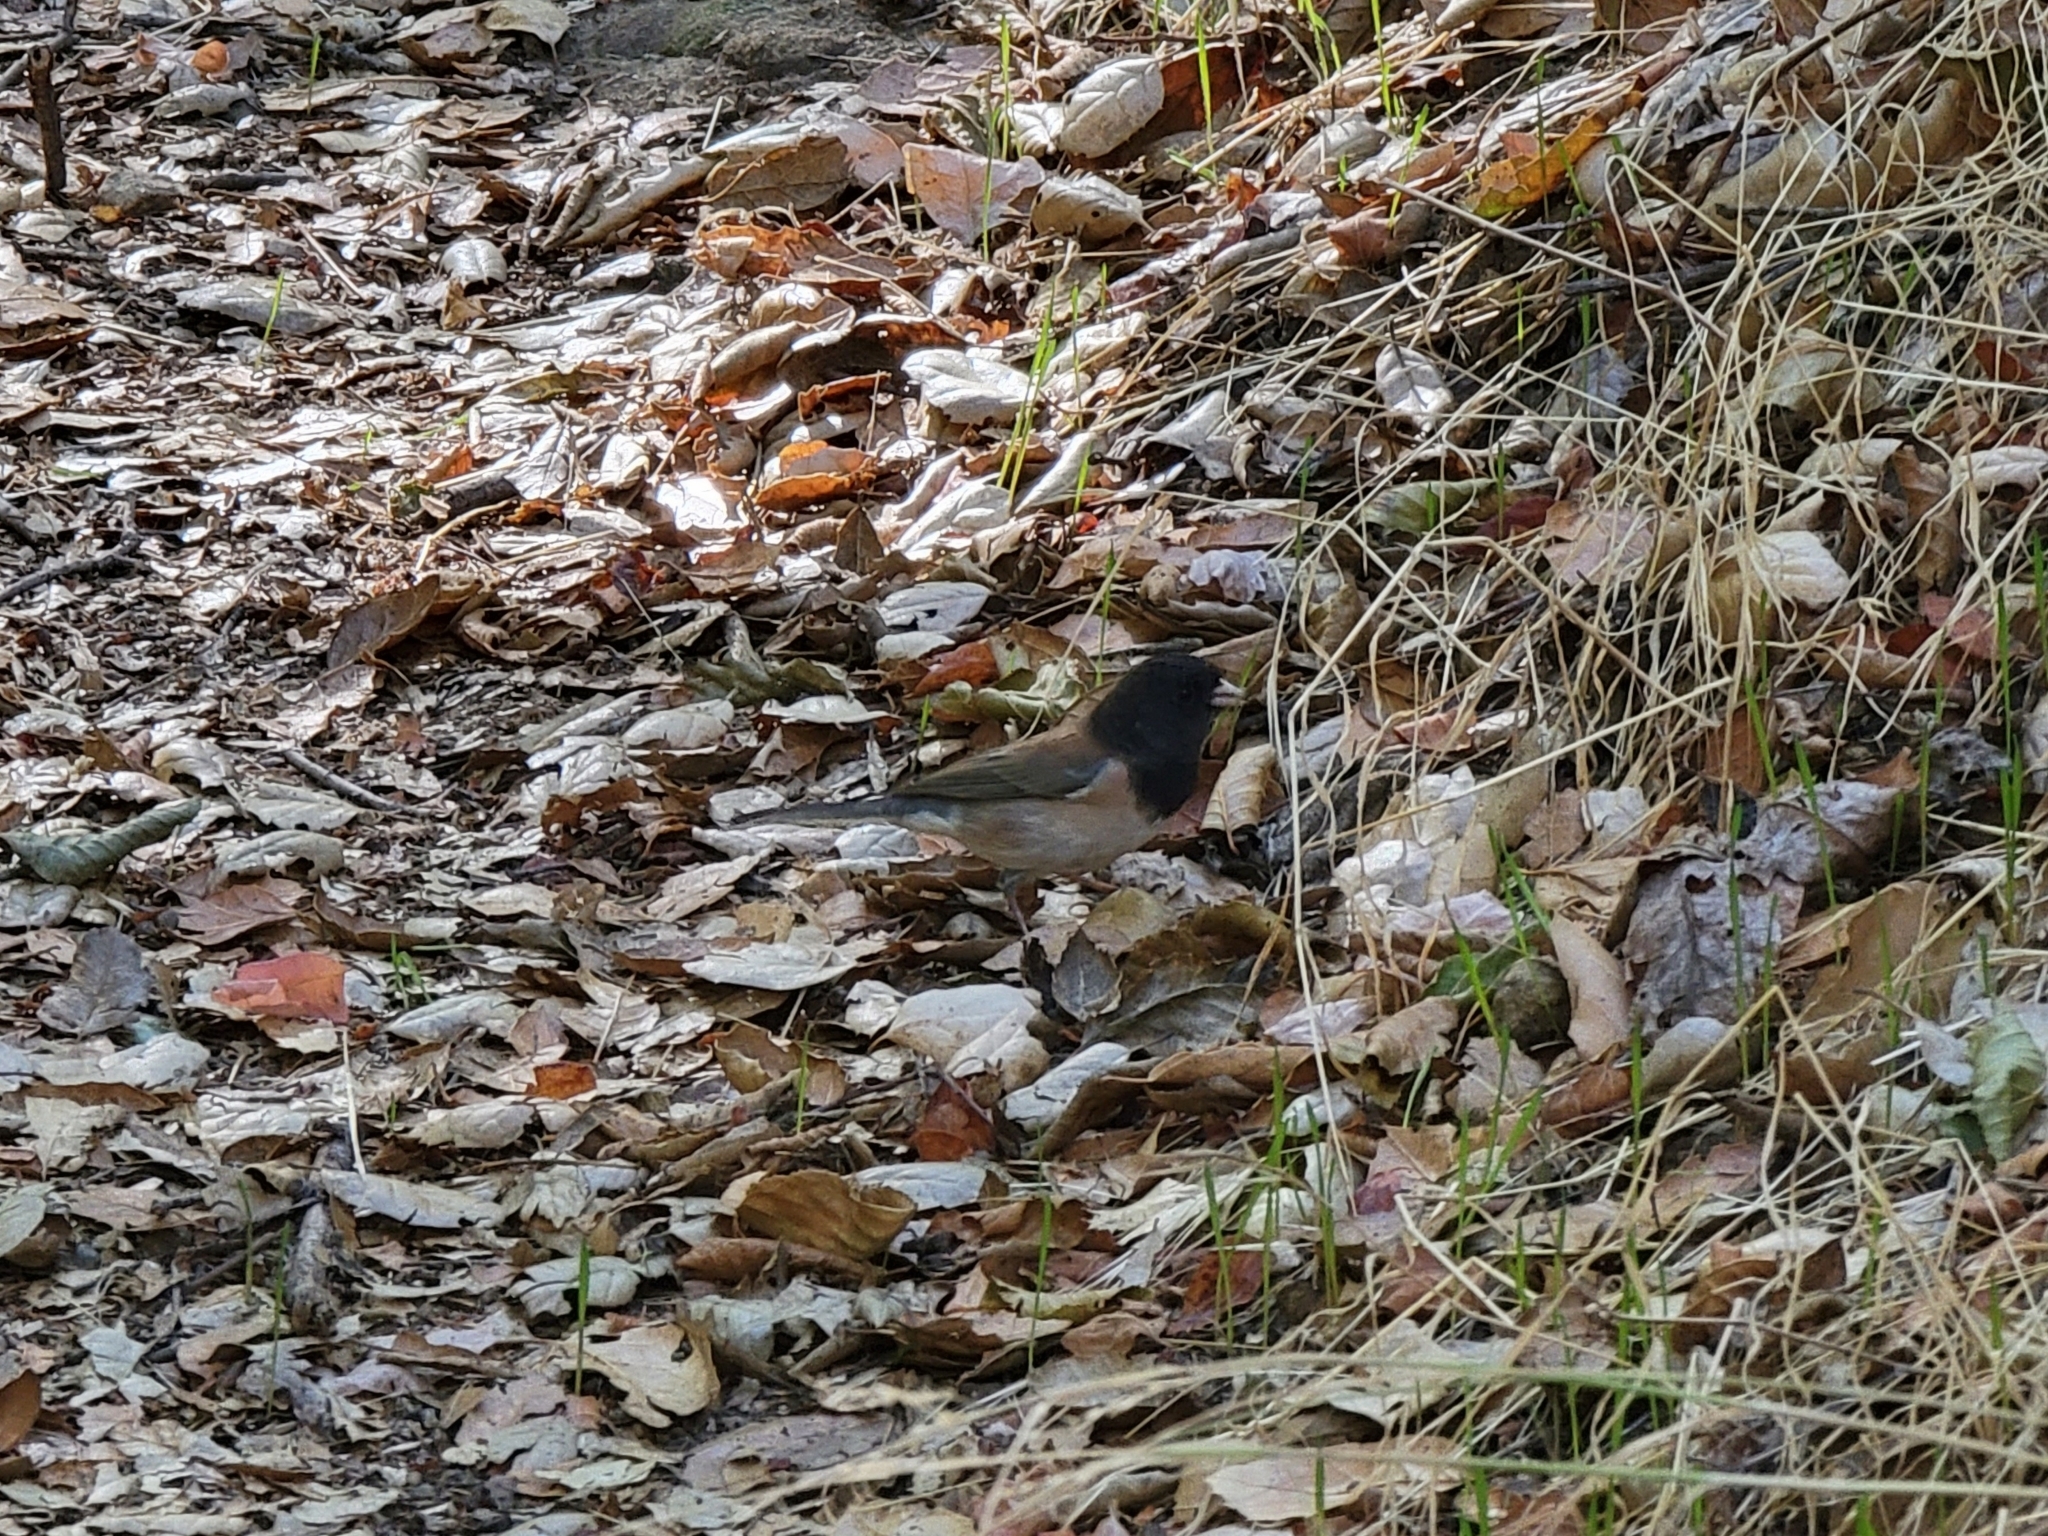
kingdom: Animalia
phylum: Chordata
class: Aves
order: Passeriformes
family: Passerellidae
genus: Junco
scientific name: Junco hyemalis
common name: Dark-eyed junco
